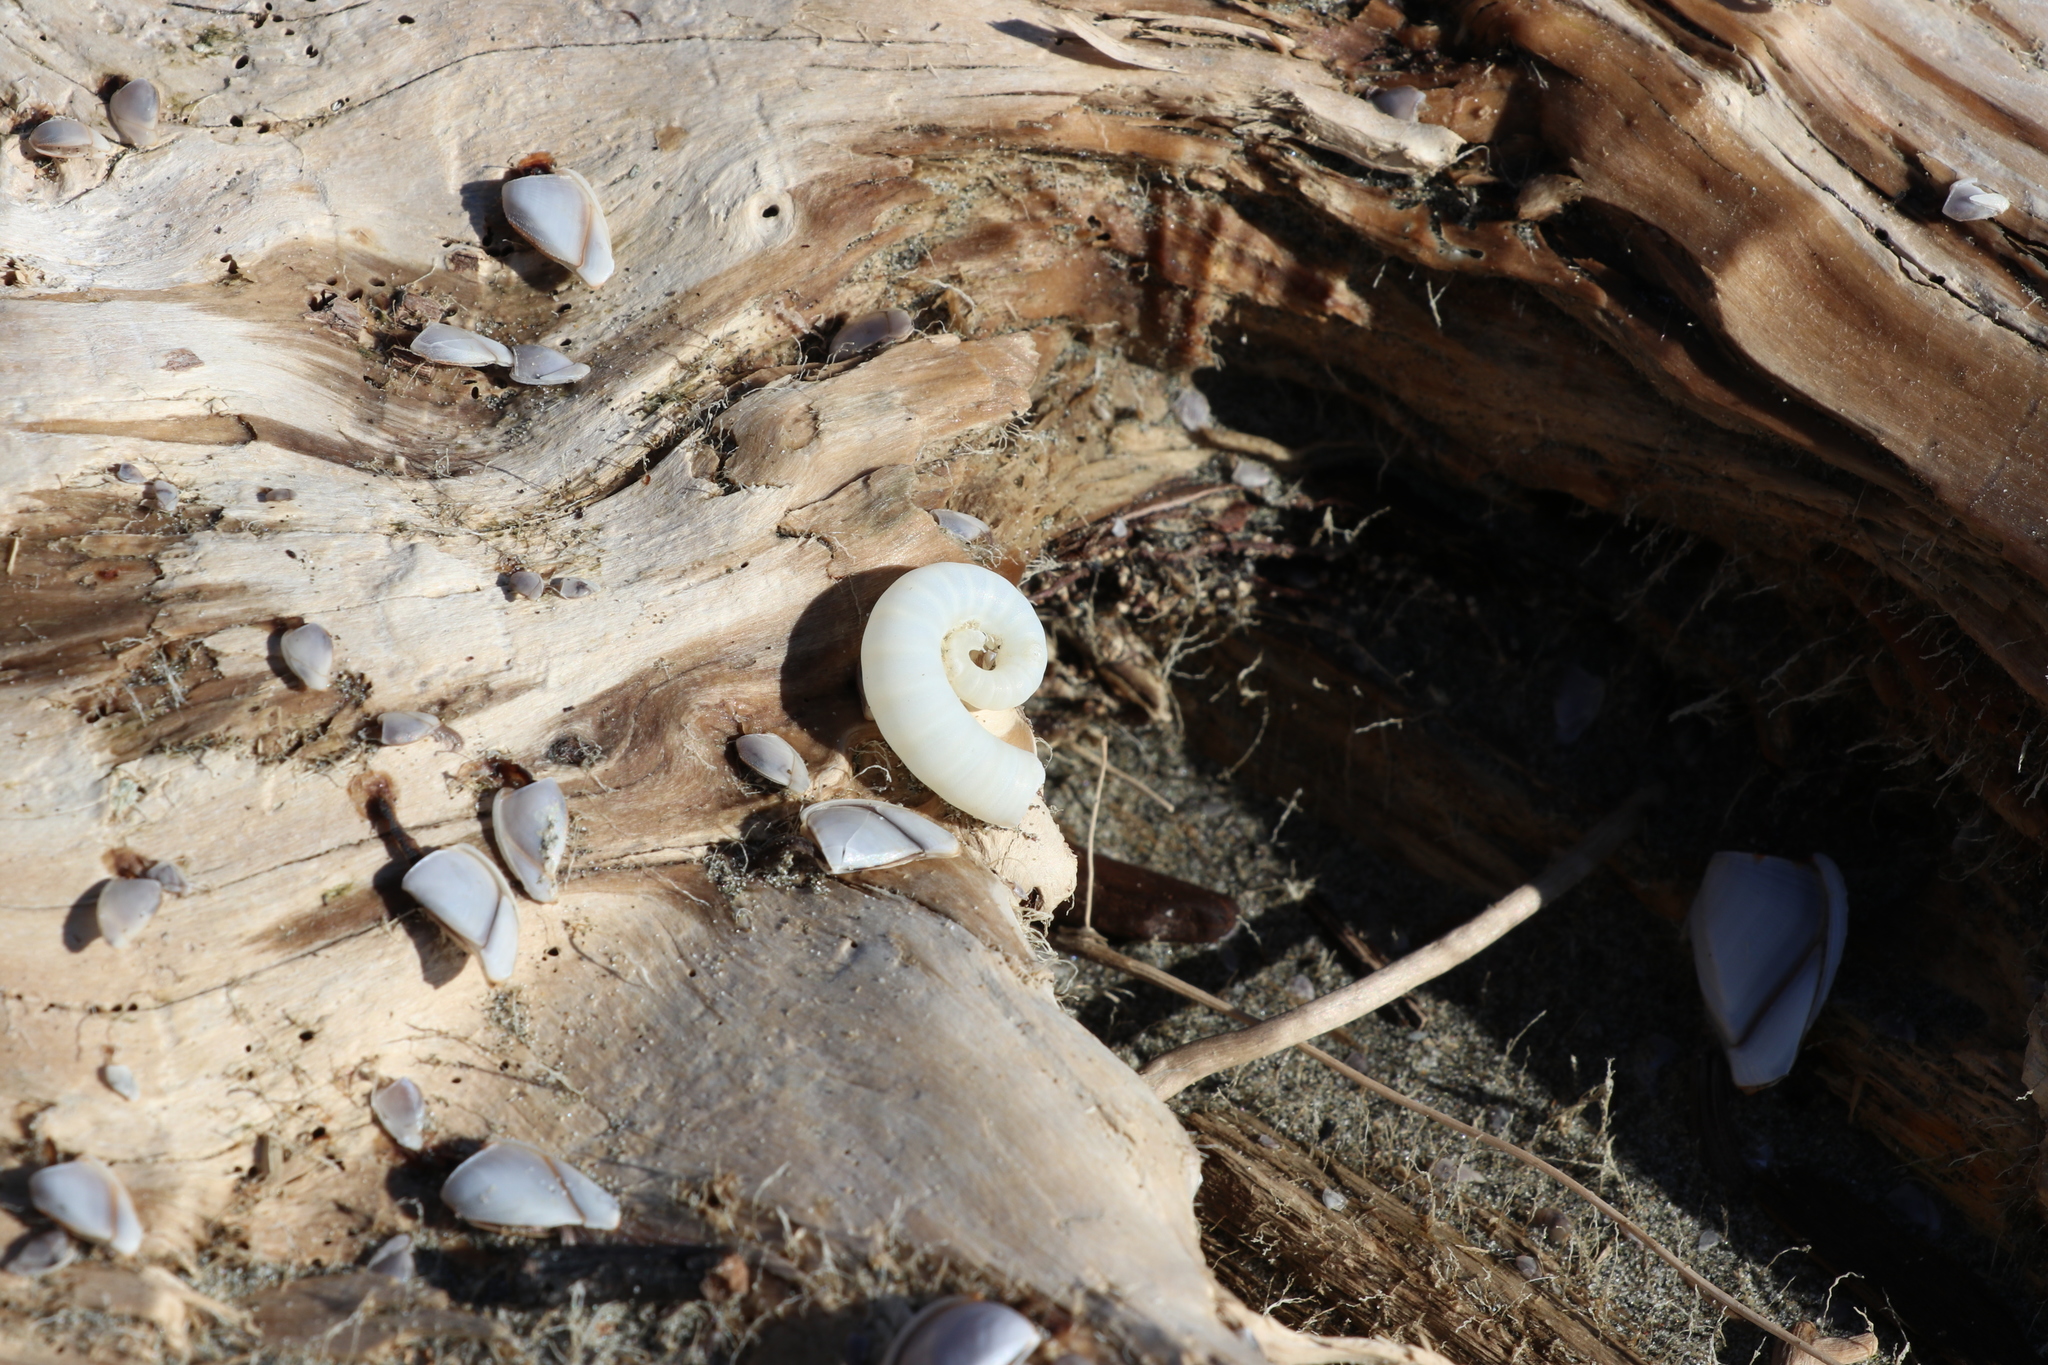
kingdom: Animalia
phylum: Mollusca
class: Cephalopoda
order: Spirulida
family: Spirulidae
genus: Spirula
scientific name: Spirula spirula
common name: Ram's horn squid
